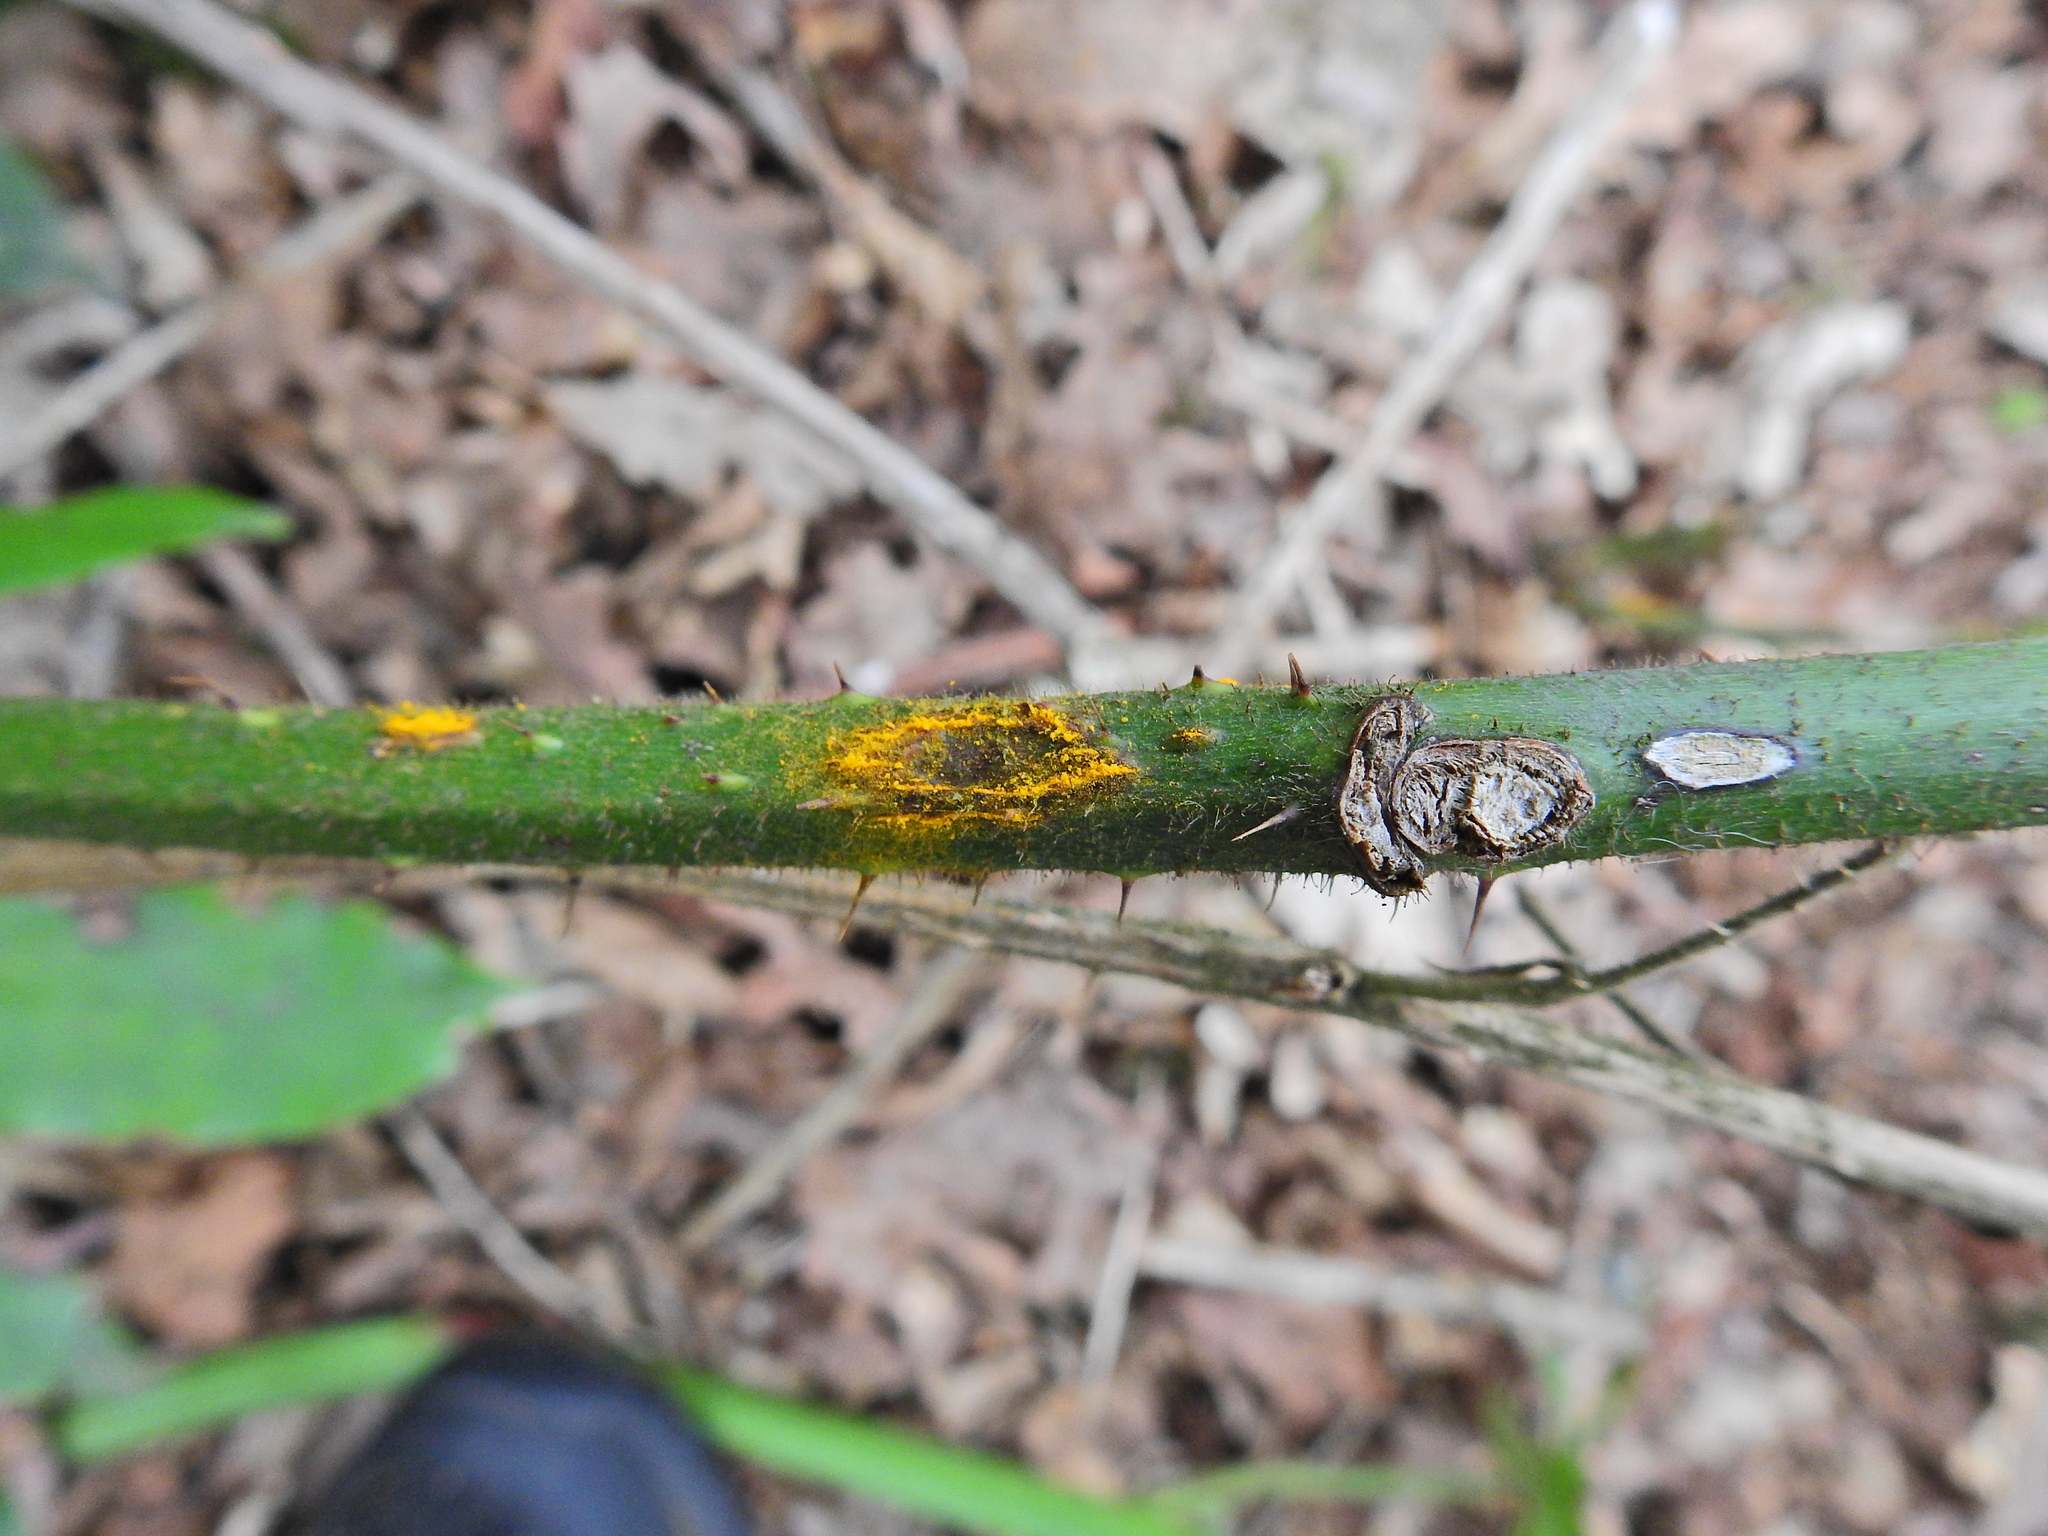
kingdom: Fungi
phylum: Basidiomycota
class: Pucciniomycetes
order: Pucciniales
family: Phragmidiaceae
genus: Kuehneola
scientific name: Kuehneola uredinis
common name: Bramble stem rust
